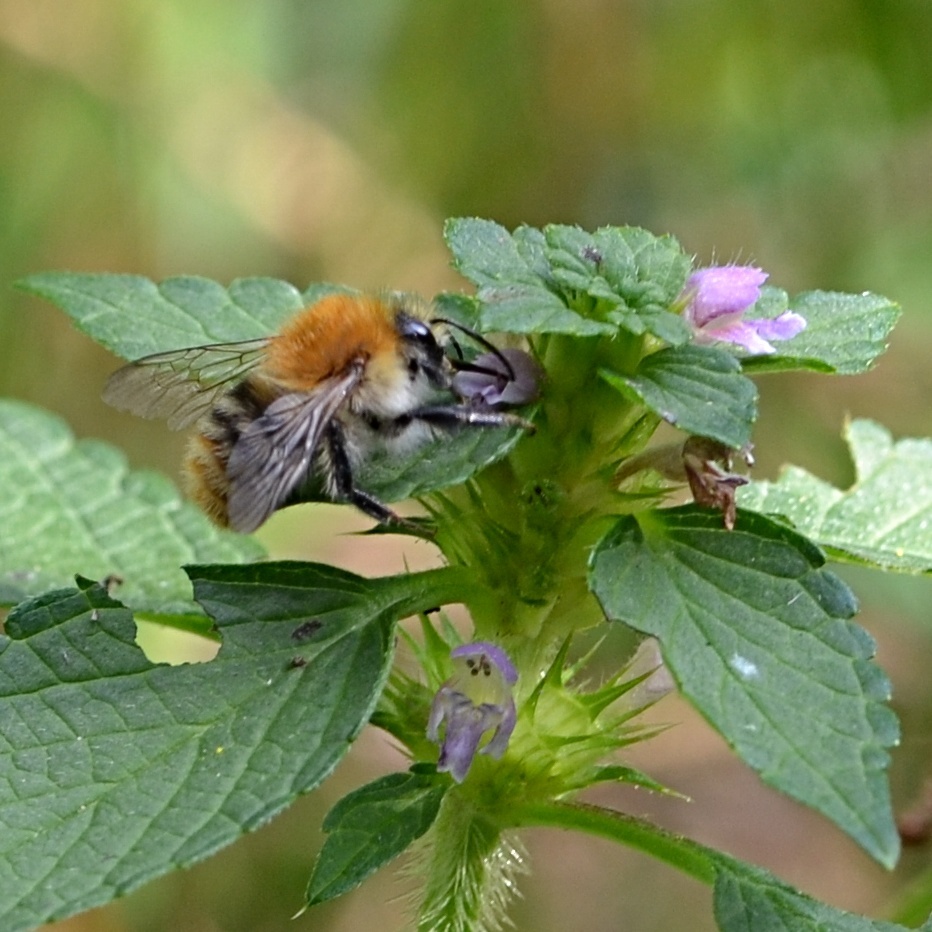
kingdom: Animalia
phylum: Arthropoda
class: Insecta
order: Hymenoptera
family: Apidae
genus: Bombus
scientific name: Bombus pascuorum
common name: Common carder bee
